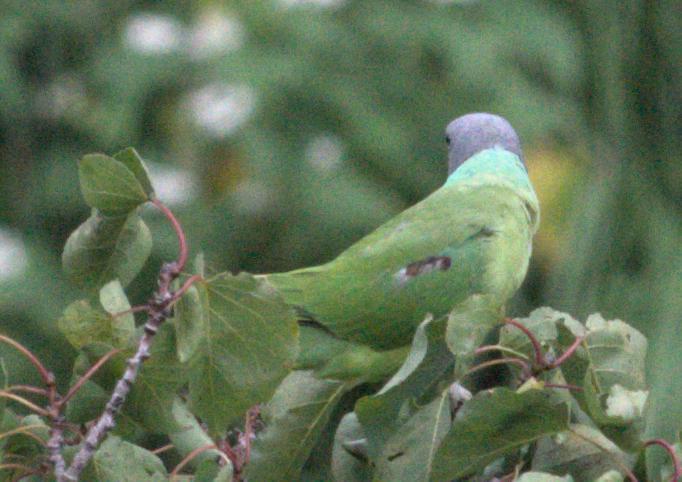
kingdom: Animalia
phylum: Chordata
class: Aves
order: Psittaciformes
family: Psittacidae
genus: Psittacula
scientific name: Psittacula himalayana
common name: Slaty-headed parakeet
